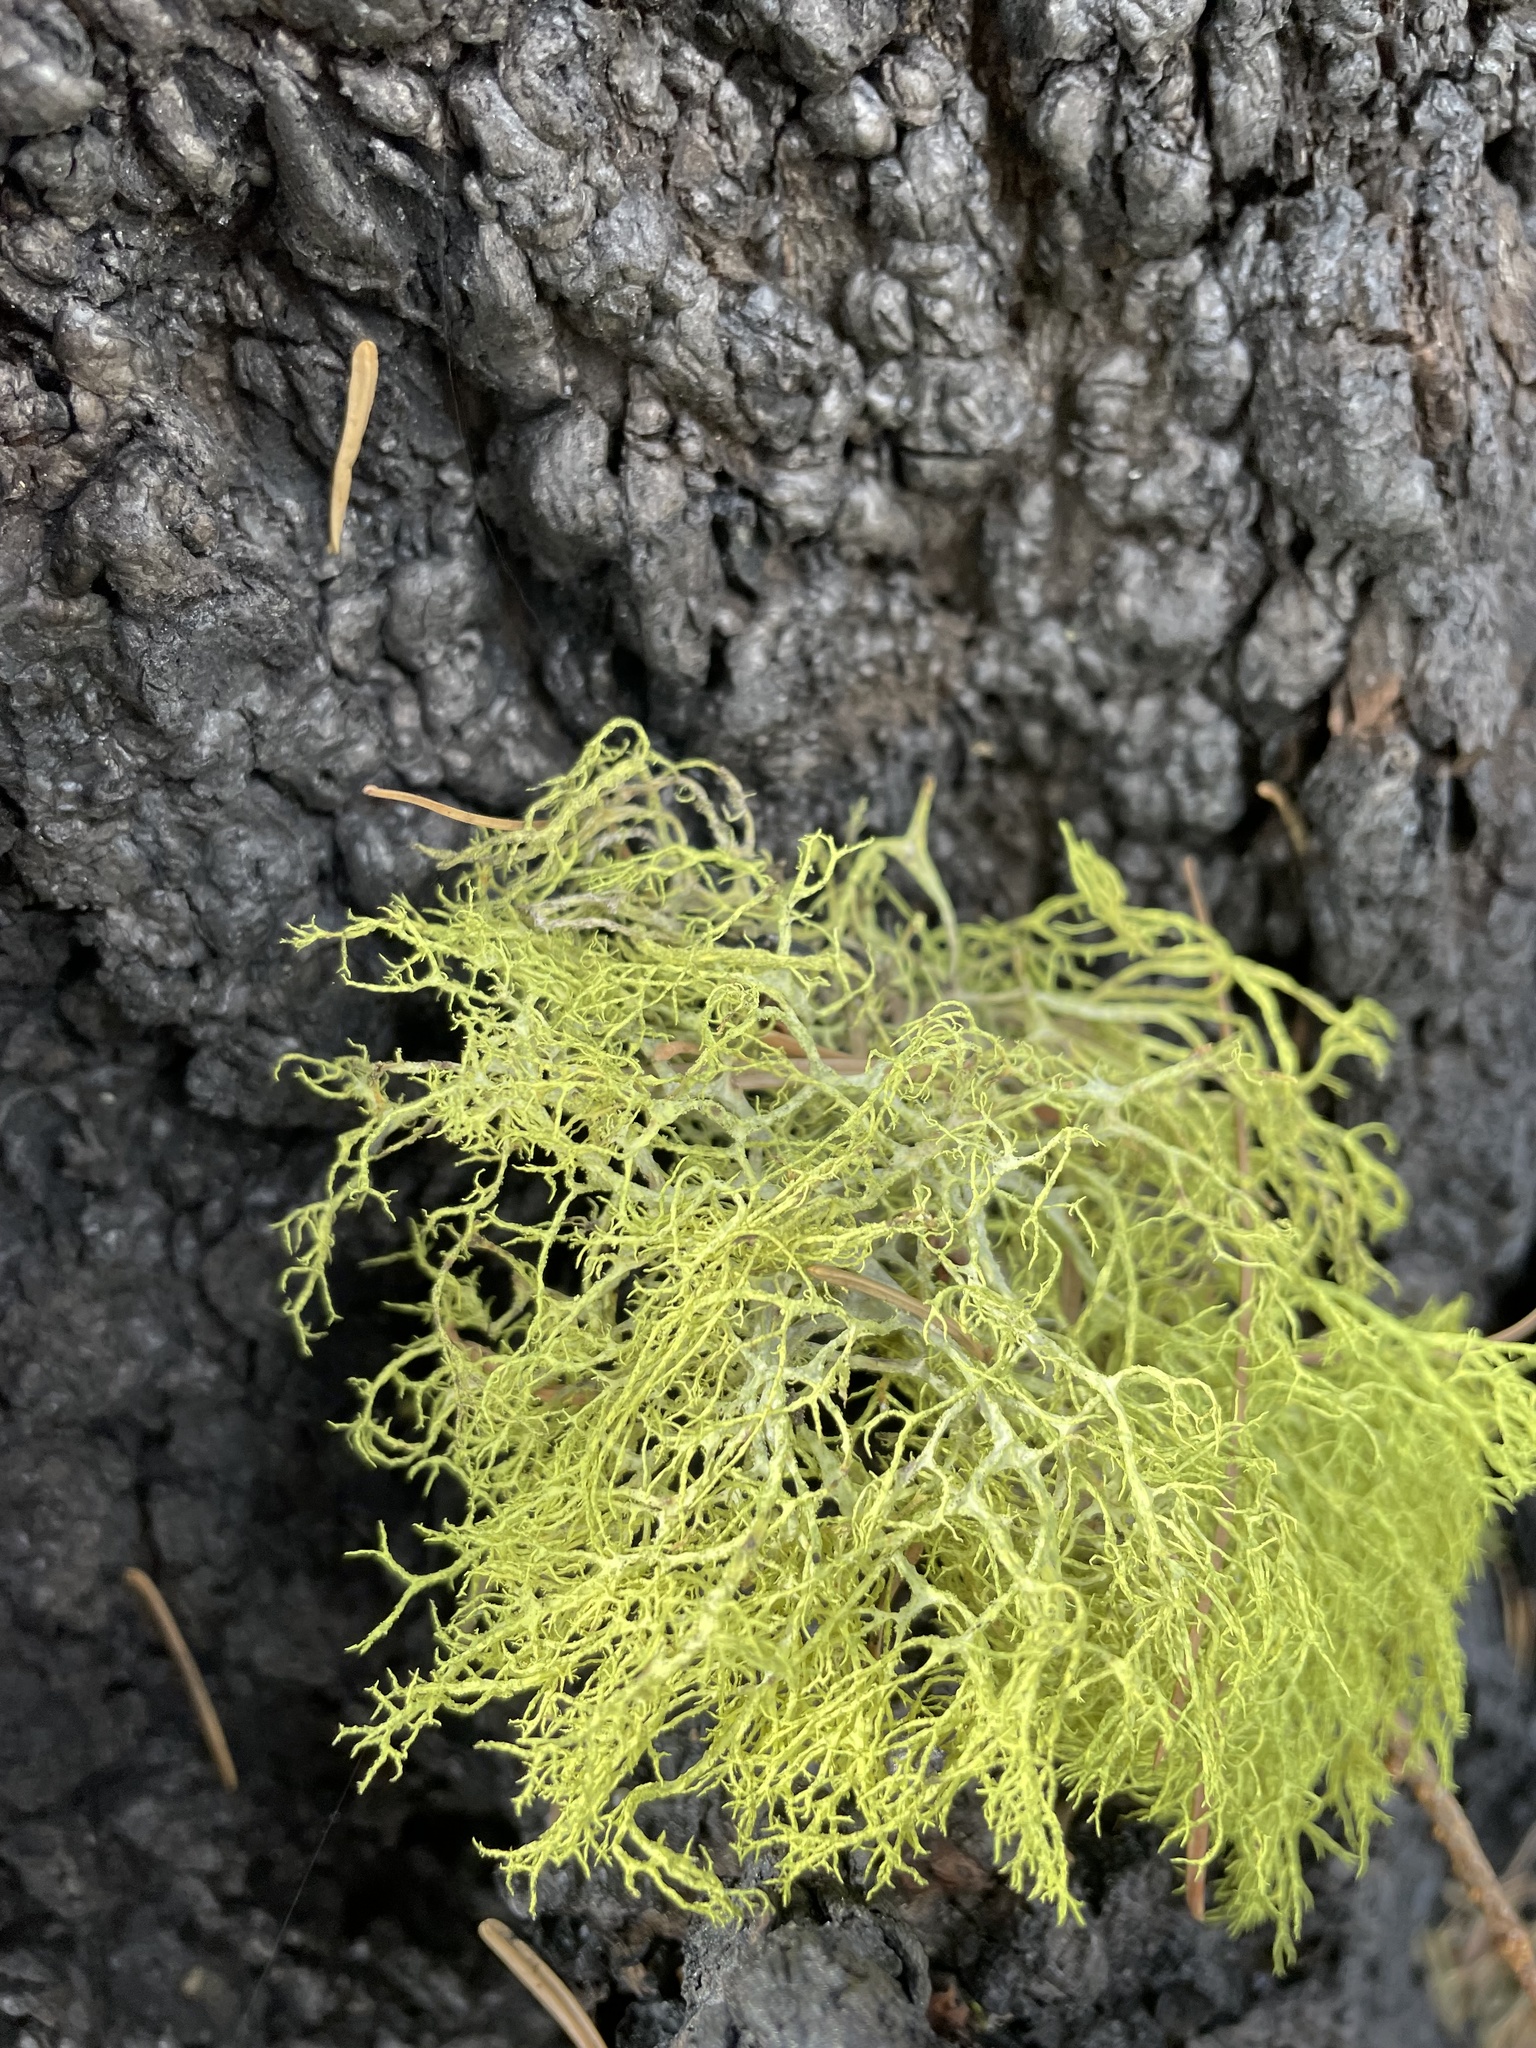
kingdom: Fungi
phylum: Ascomycota
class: Lecanoromycetes
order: Lecanorales
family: Parmeliaceae
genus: Letharia
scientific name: Letharia vulpina
